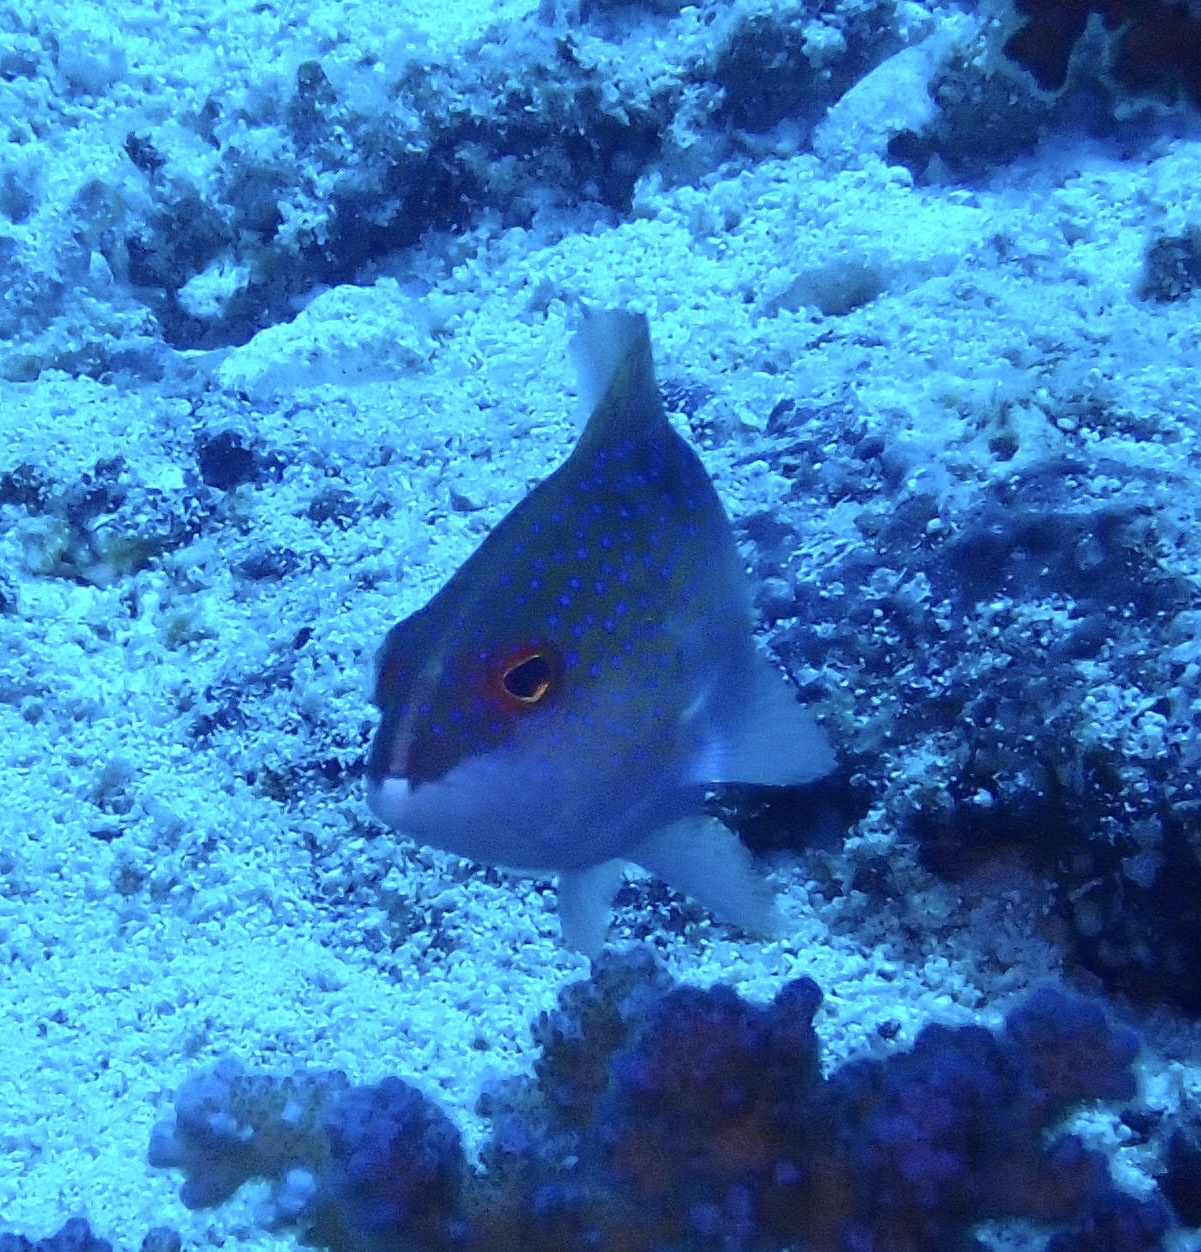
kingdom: Animalia
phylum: Chordata
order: Perciformes
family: Serranidae
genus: Variola
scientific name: Variola louti
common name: Yellow-edged lyretail
